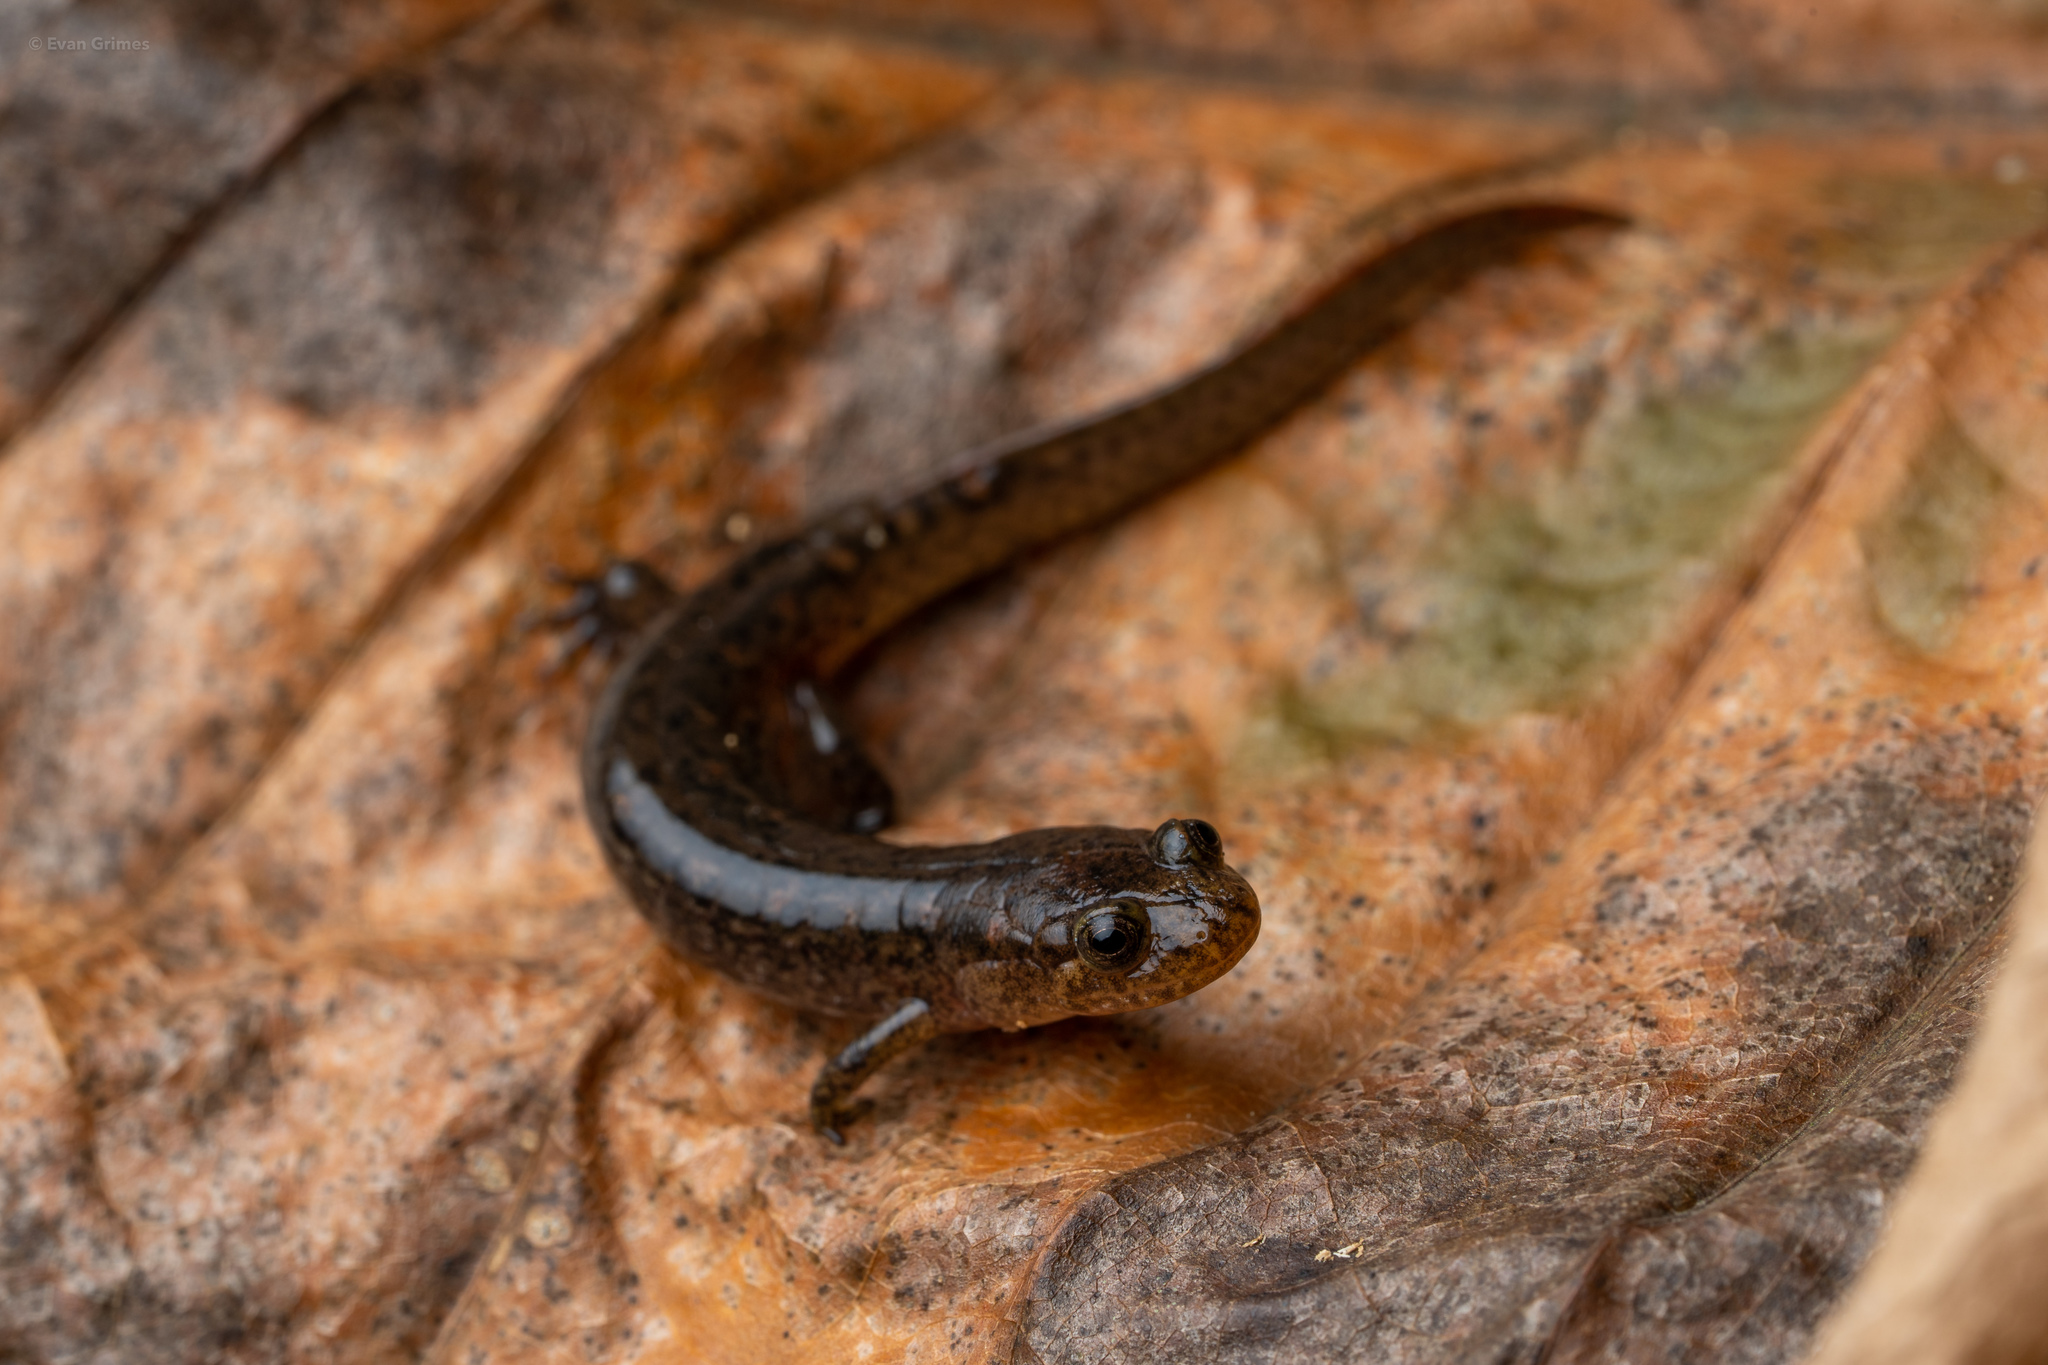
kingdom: Animalia
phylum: Chordata
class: Amphibia
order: Caudata
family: Plethodontidae
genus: Desmognathus
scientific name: Desmognathus brimleyorum
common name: Ouachita dusky salamander
